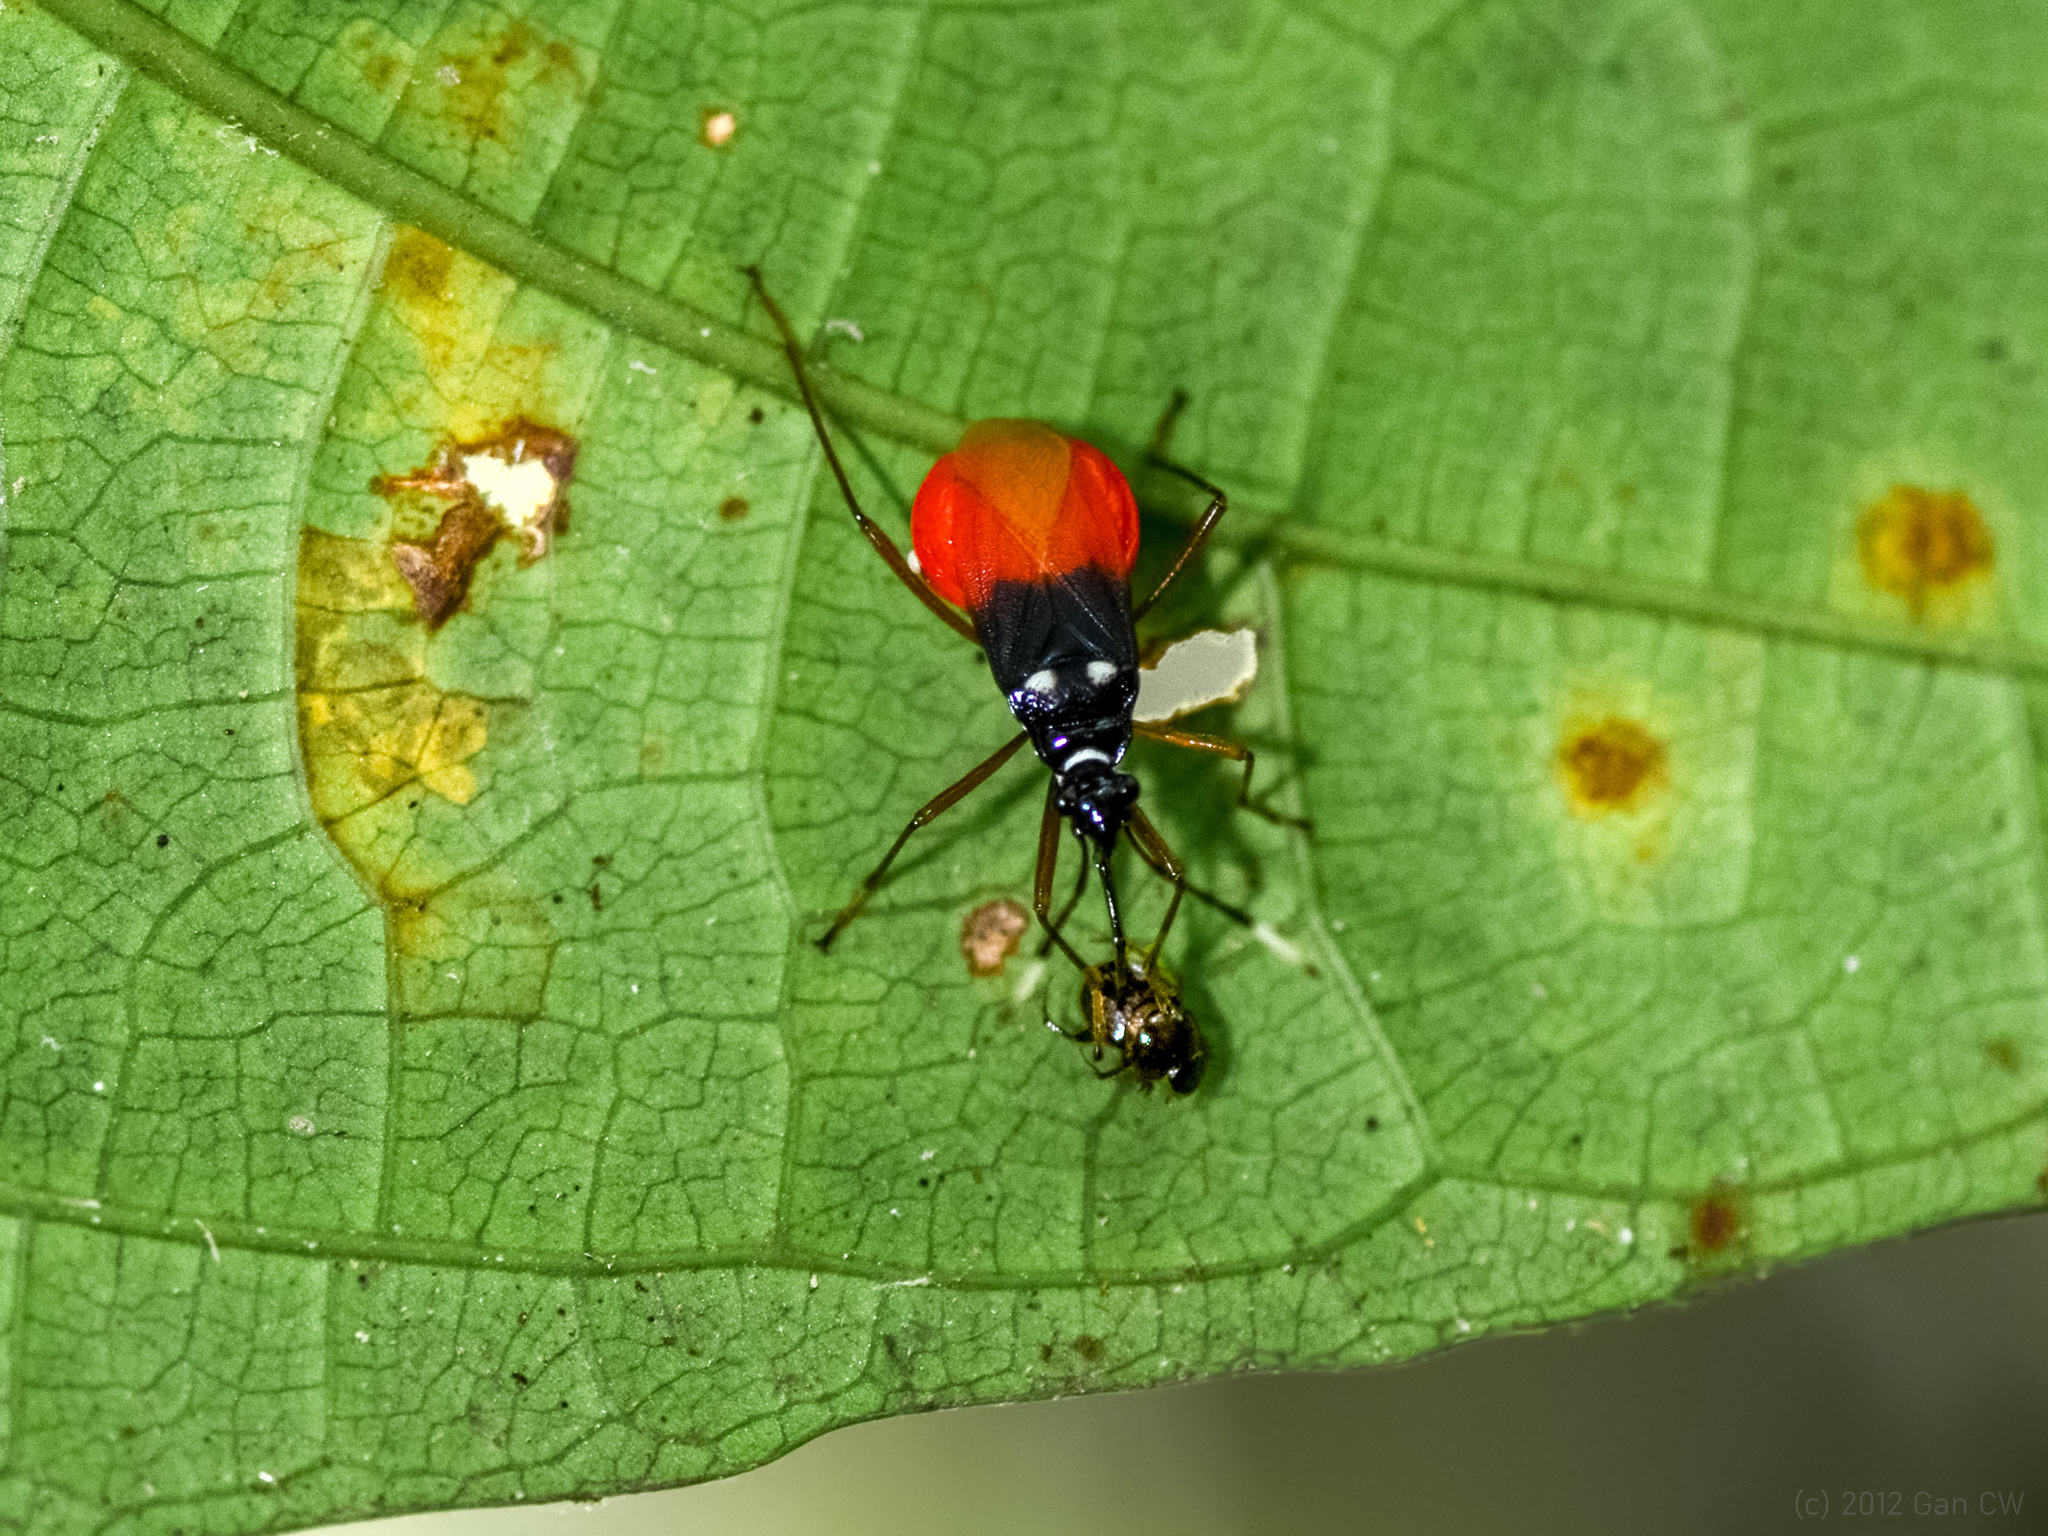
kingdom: Animalia
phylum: Arthropoda
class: Insecta
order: Hemiptera
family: Pyrrhocoridae
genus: Dindymus
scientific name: Dindymus
